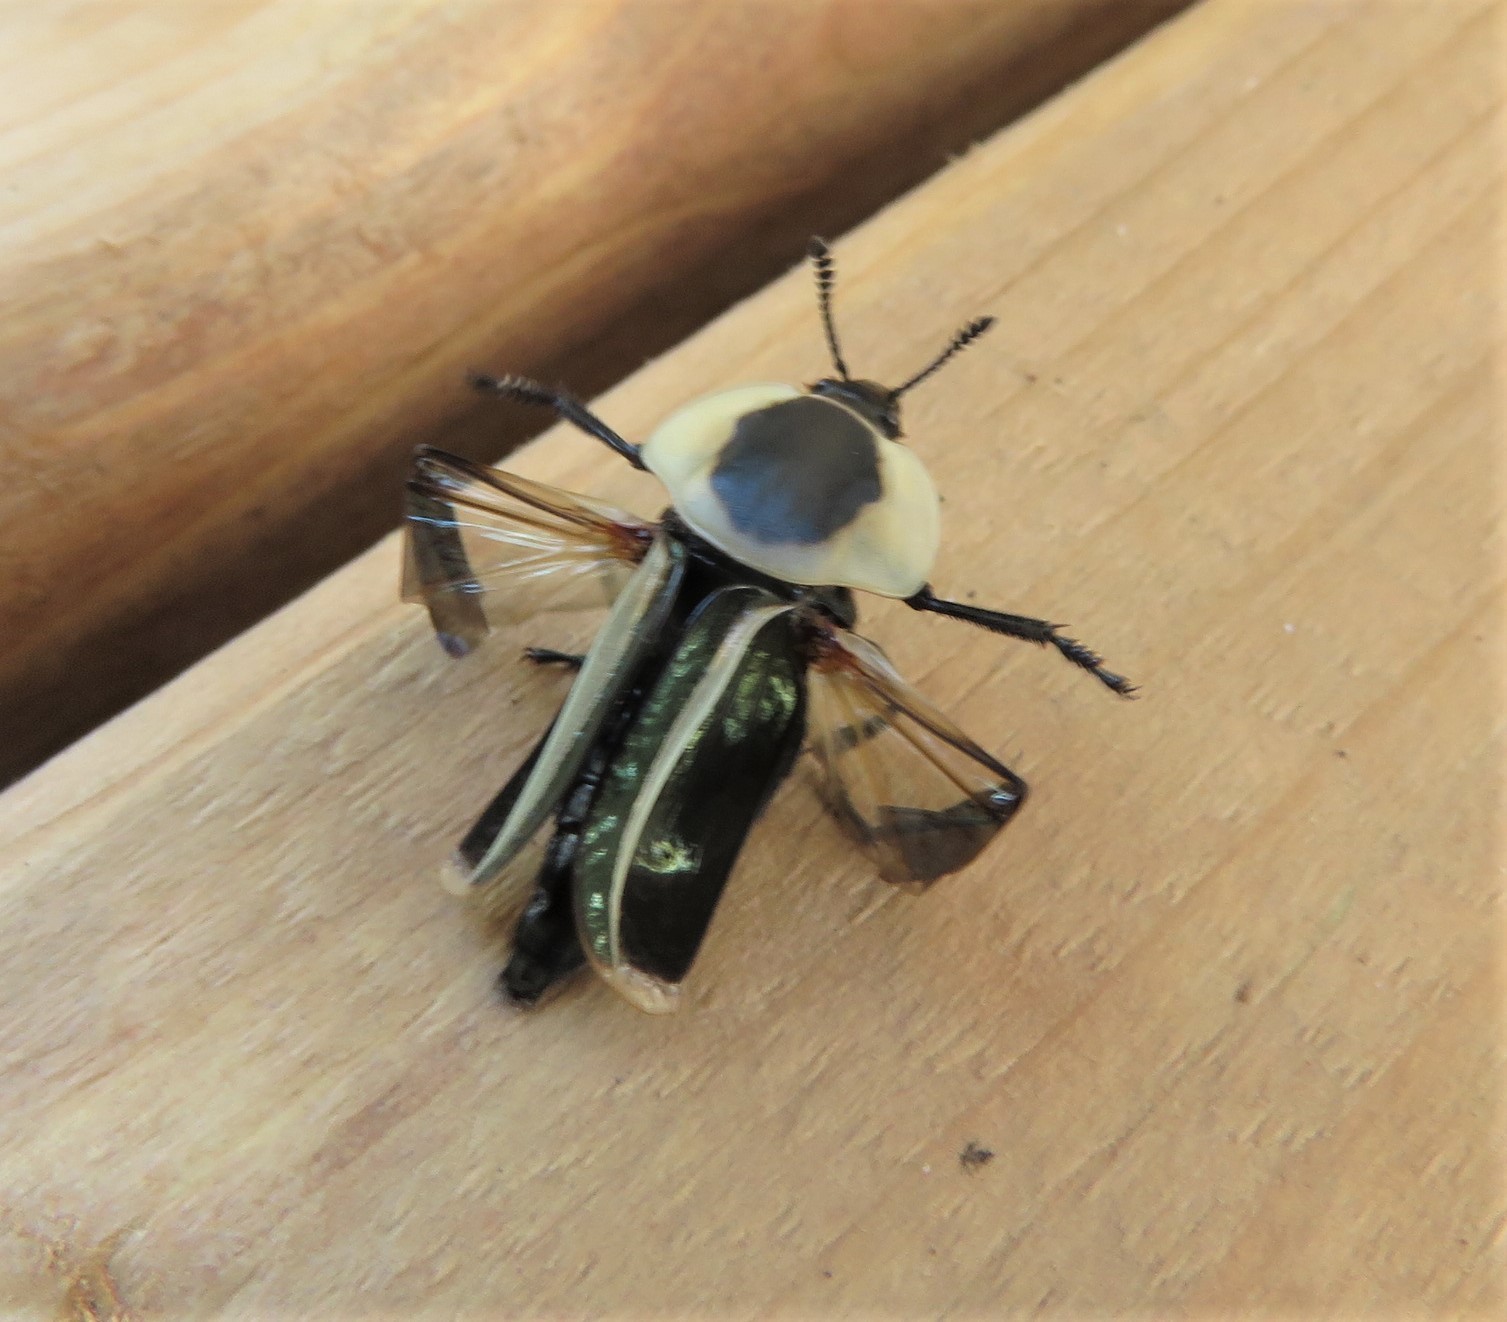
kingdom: Animalia
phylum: Arthropoda
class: Insecta
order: Coleoptera
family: Staphylinidae
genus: Necrophila
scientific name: Necrophila americana
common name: American carrion beetle
